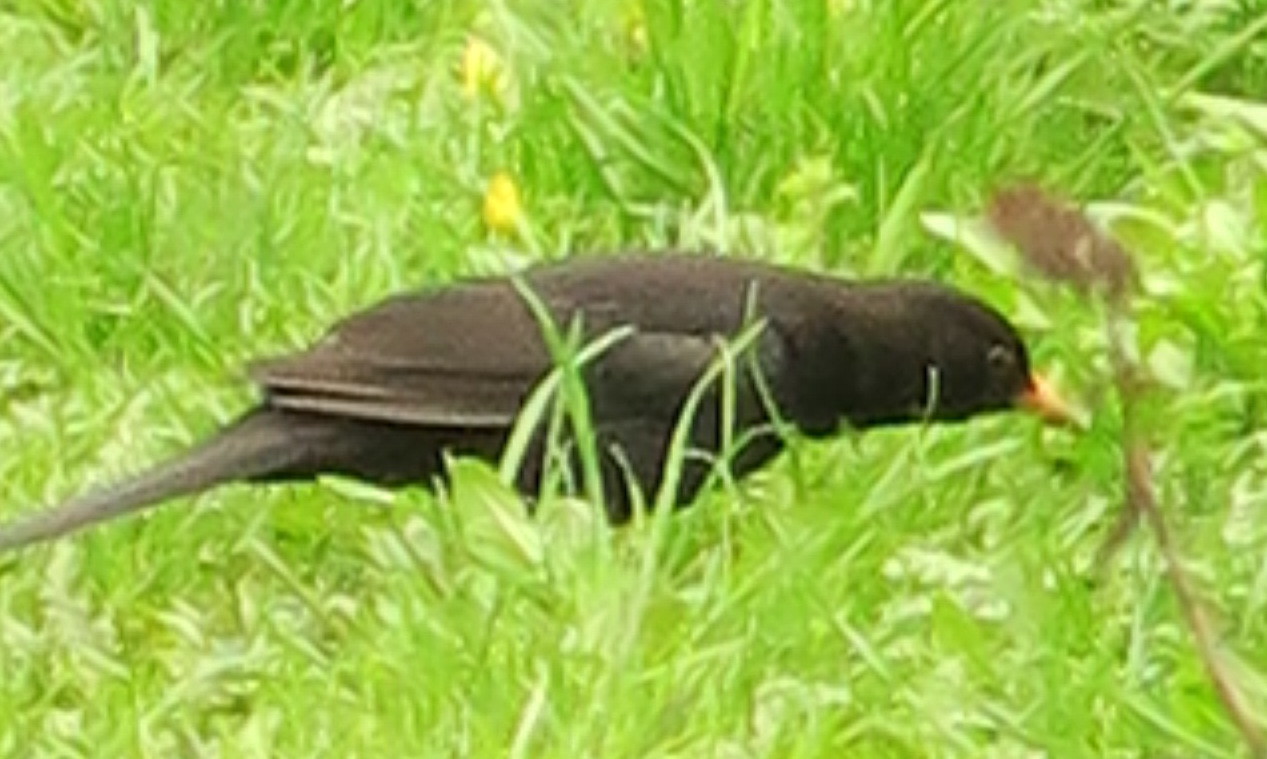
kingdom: Animalia
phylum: Chordata
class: Aves
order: Passeriformes
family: Turdidae
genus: Turdus
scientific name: Turdus merula
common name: Common blackbird
